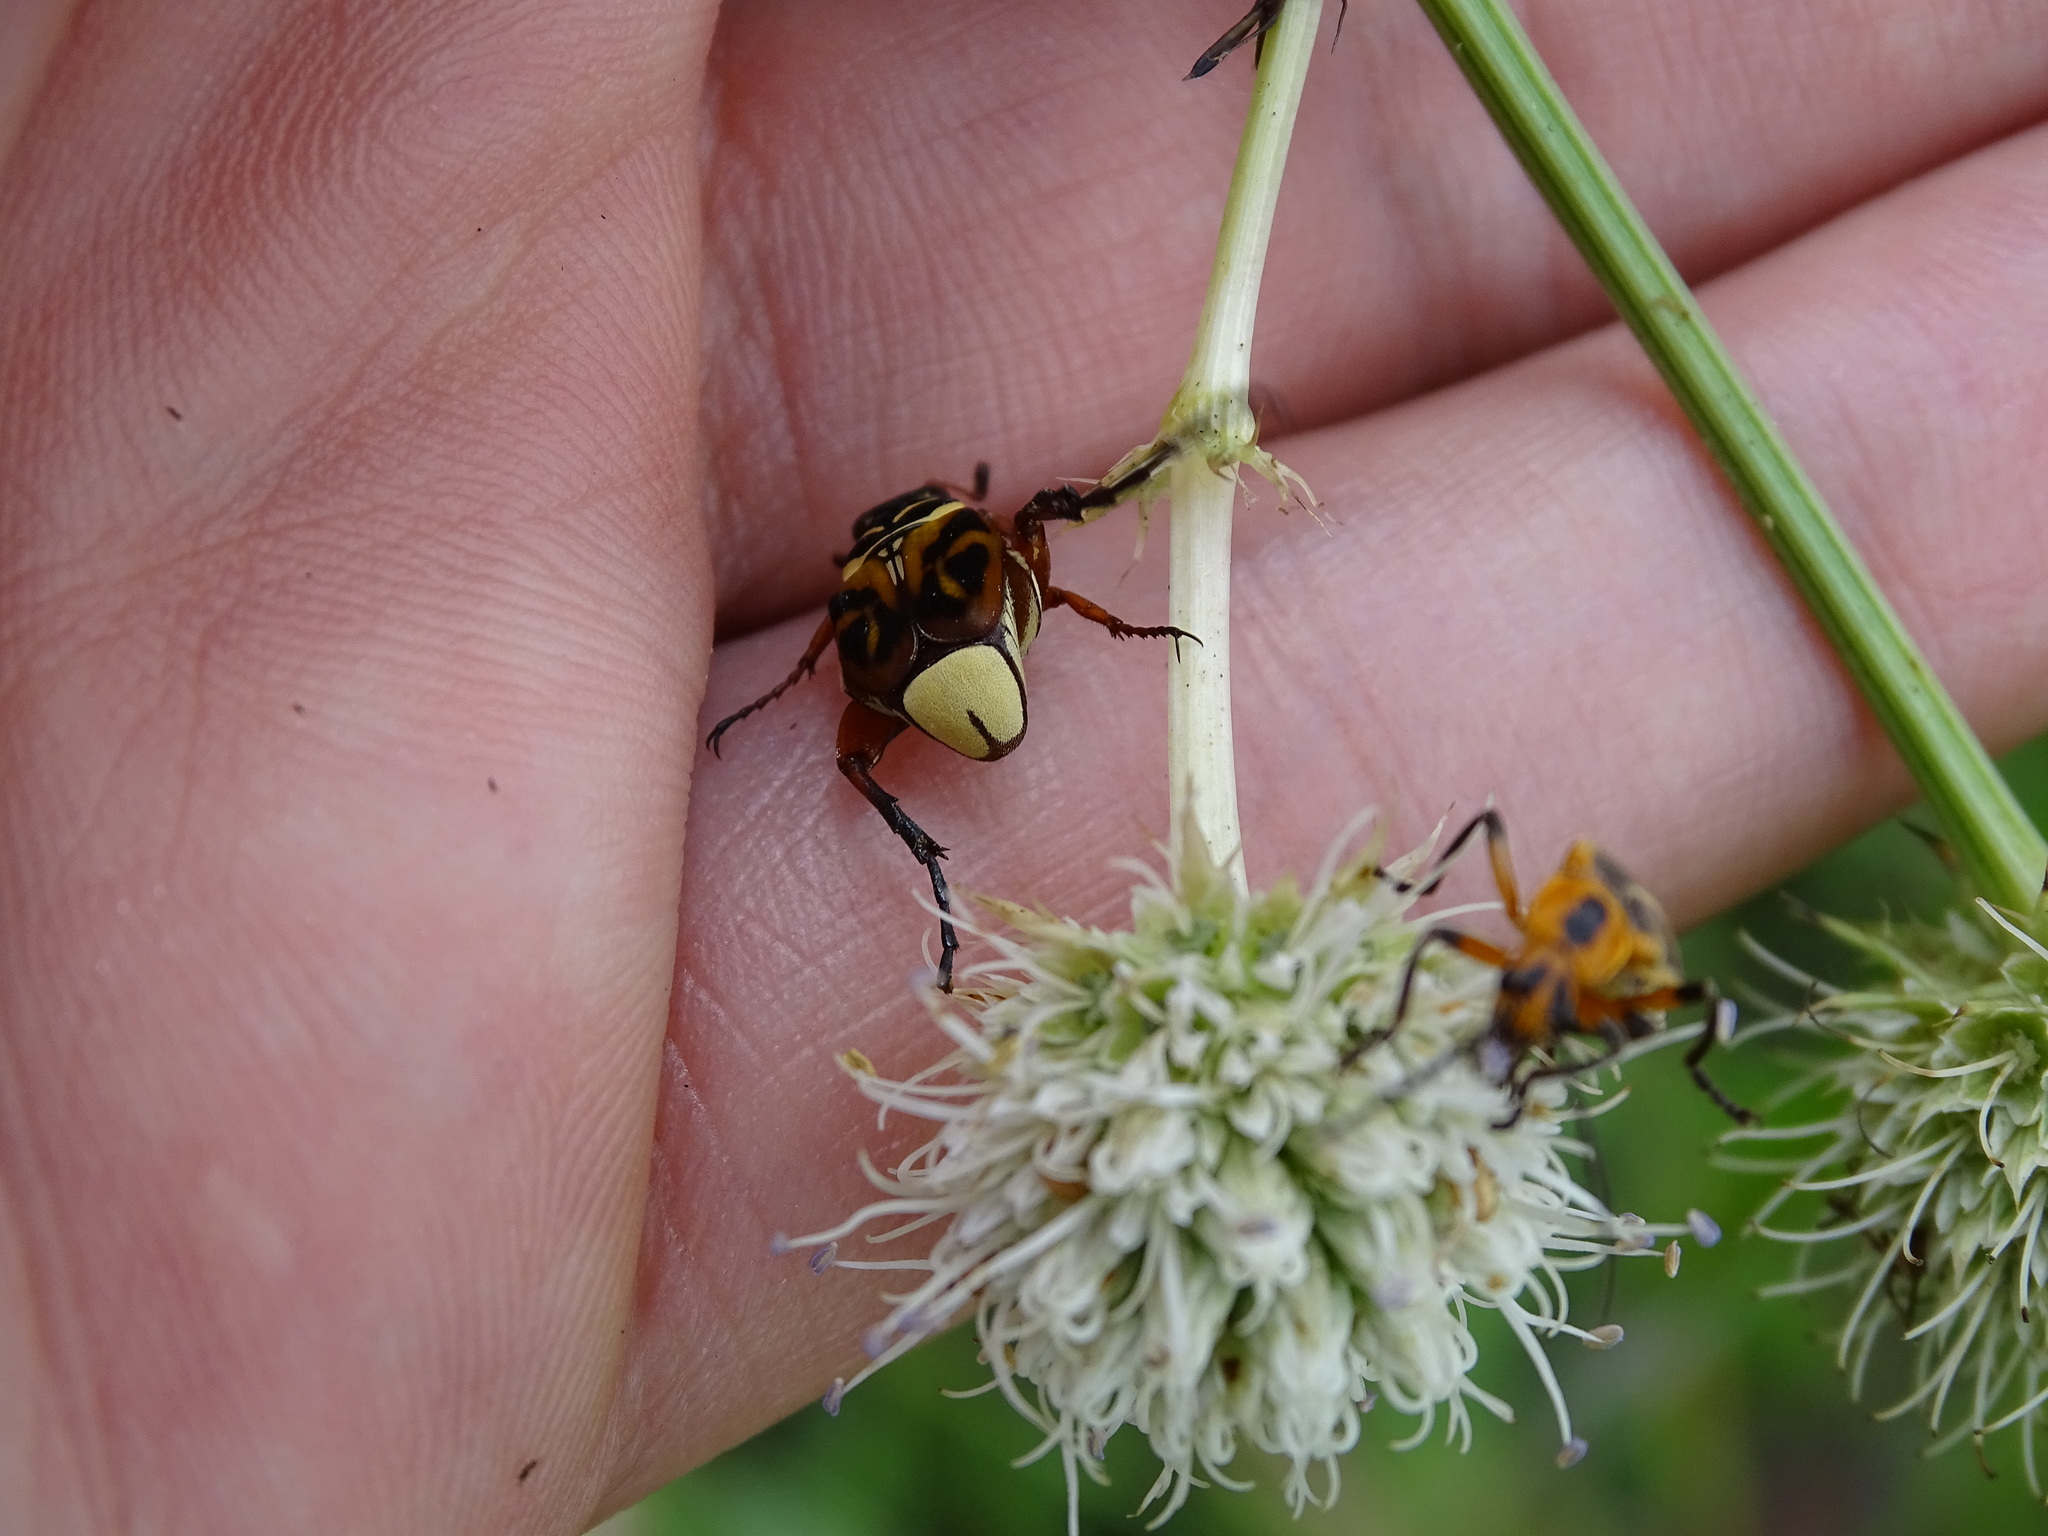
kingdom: Animalia
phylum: Arthropoda
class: Insecta
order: Coleoptera
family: Scarabaeidae
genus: Trigonopeltastes
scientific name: Trigonopeltastes delta
